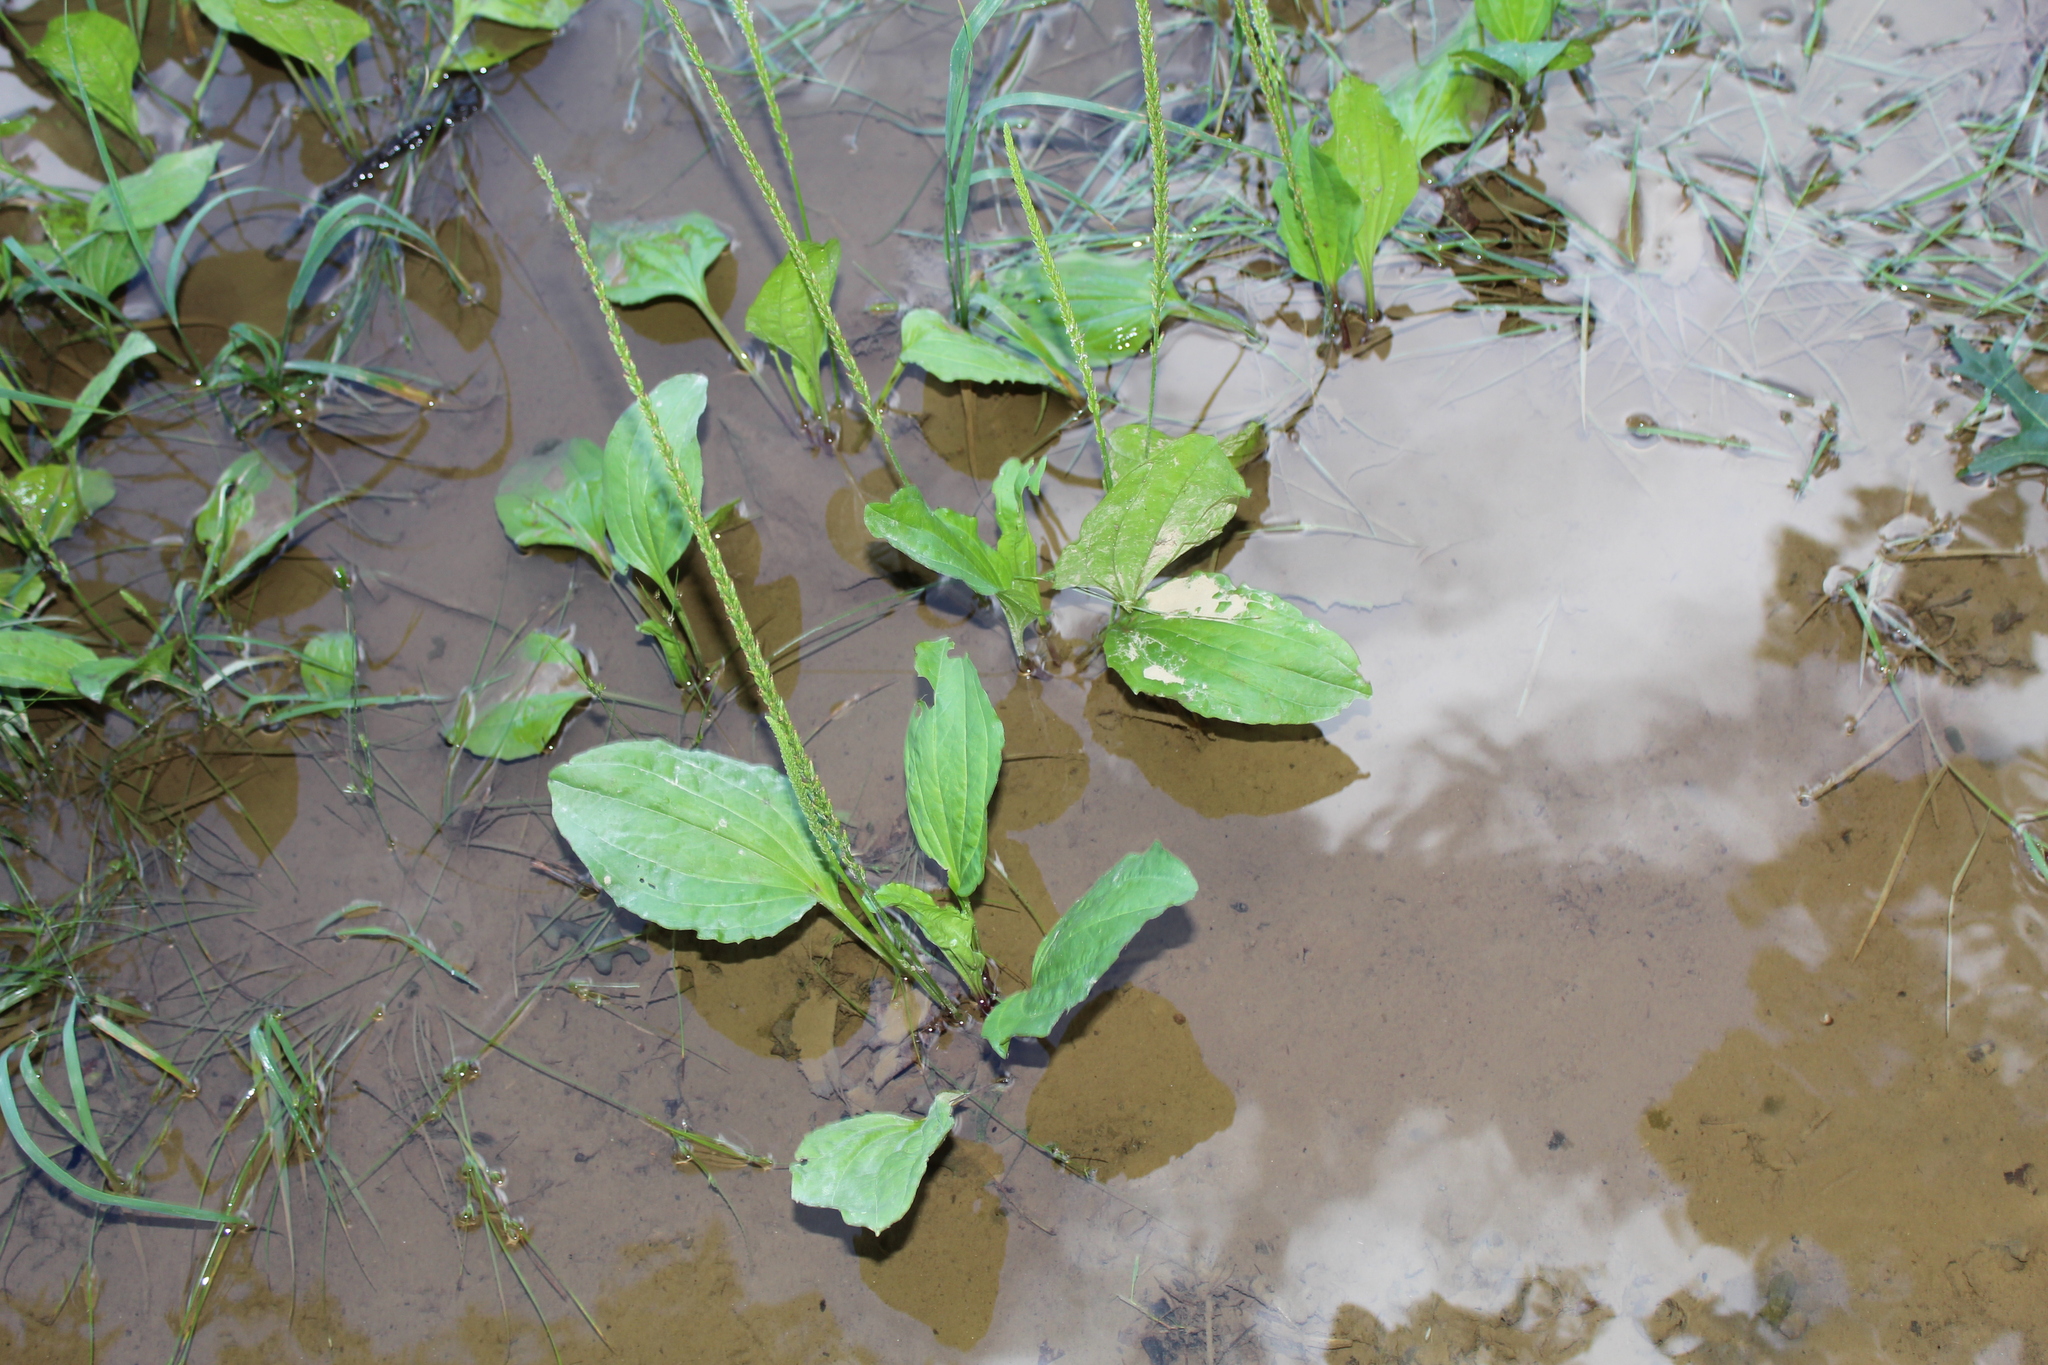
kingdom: Plantae
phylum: Tracheophyta
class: Magnoliopsida
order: Lamiales
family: Plantaginaceae
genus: Plantago
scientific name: Plantago rugelii
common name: American plantain
